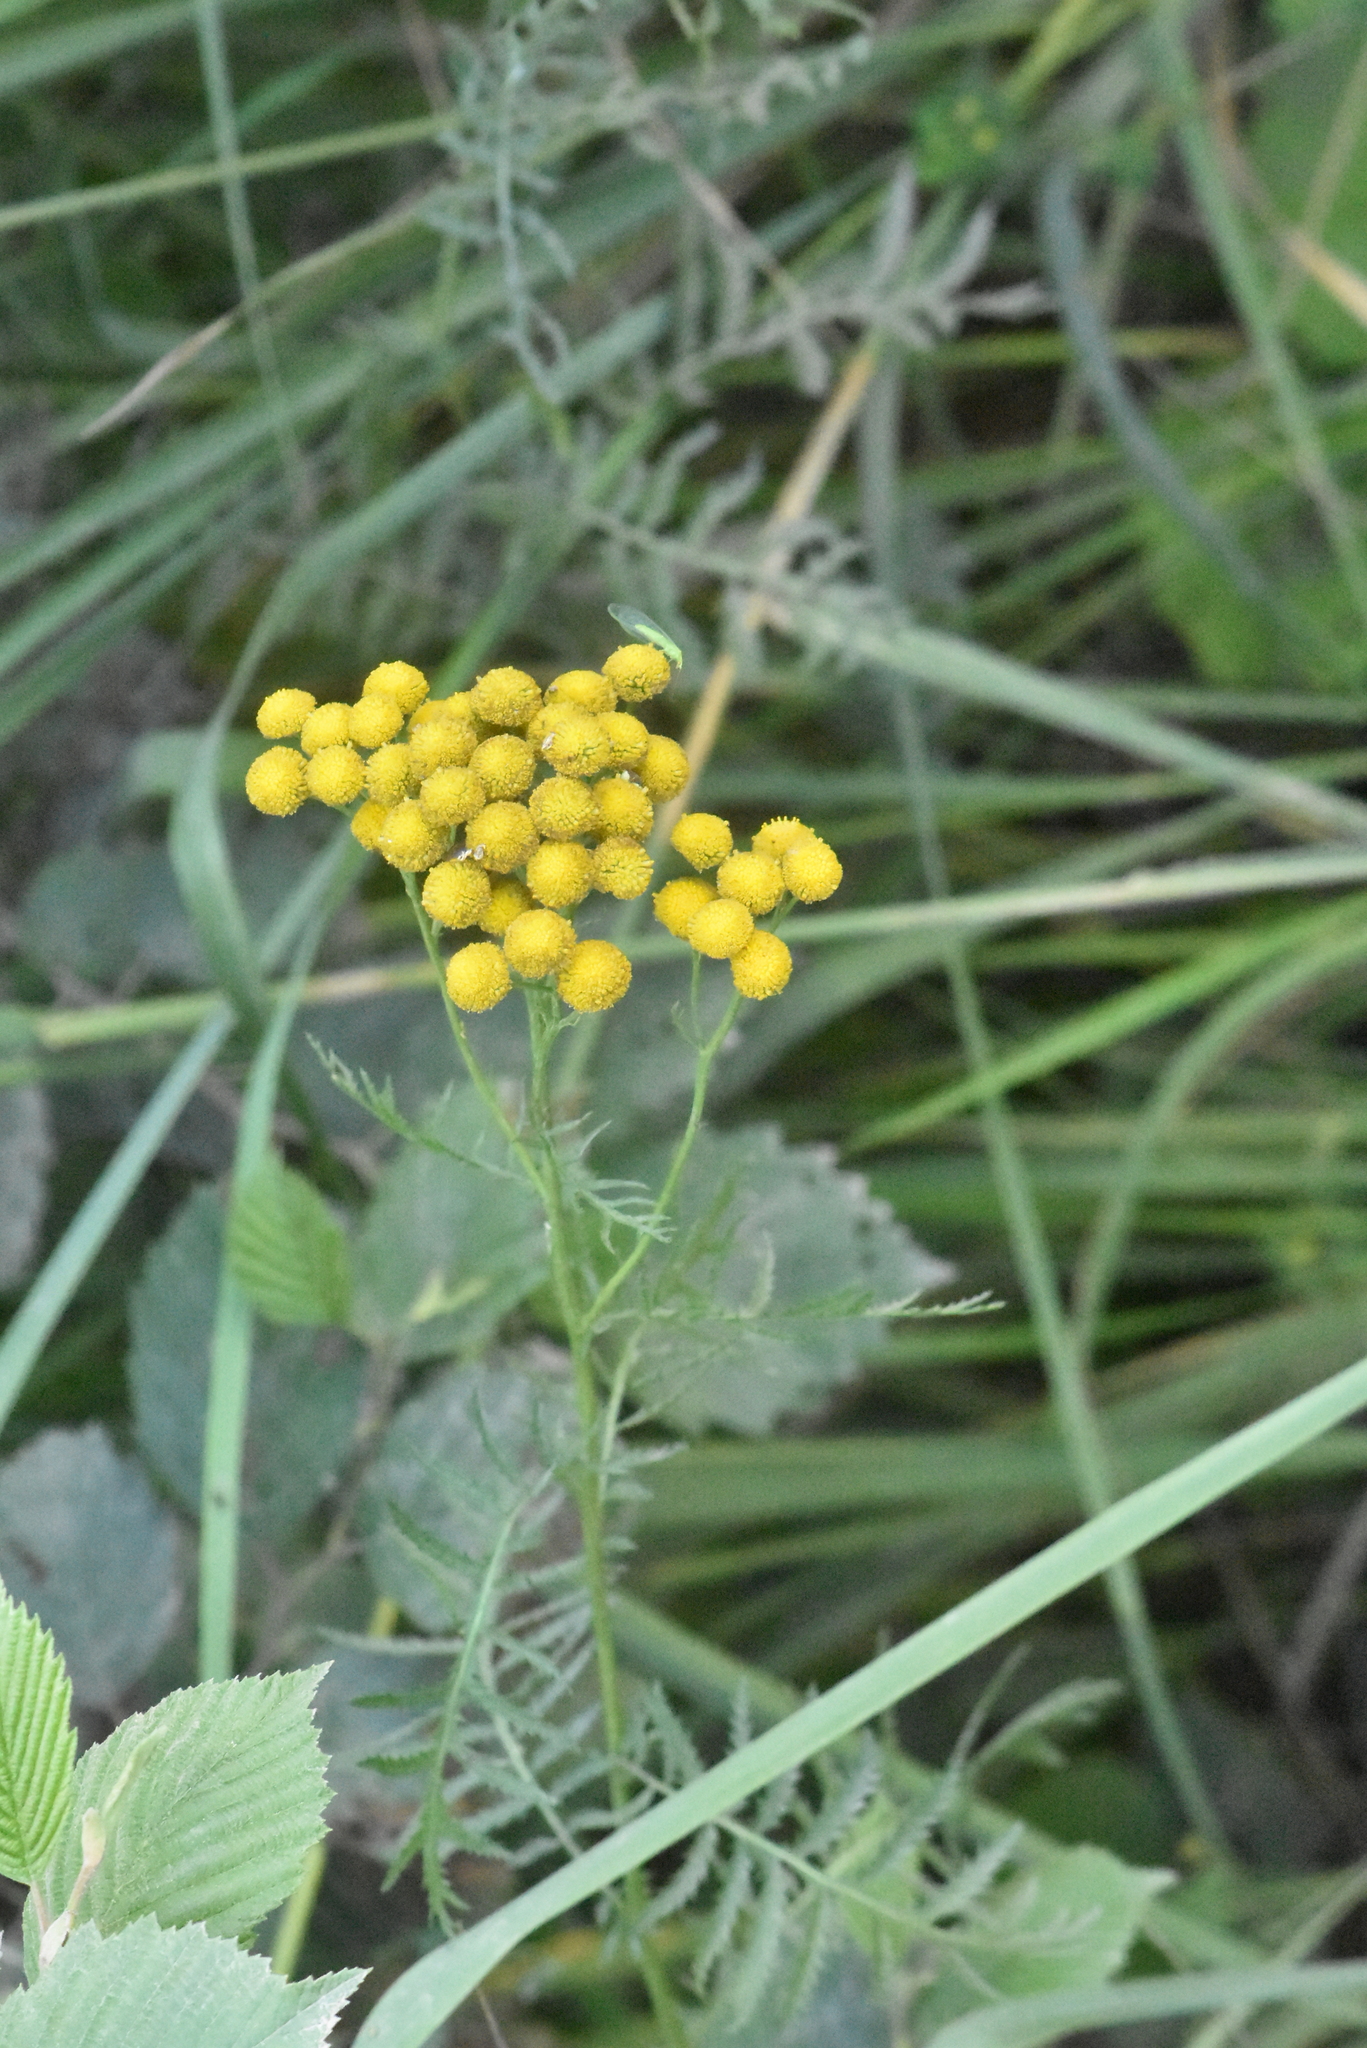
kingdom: Plantae
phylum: Tracheophyta
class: Magnoliopsida
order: Asterales
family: Asteraceae
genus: Tanacetum
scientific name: Tanacetum vulgare
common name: Common tansy
